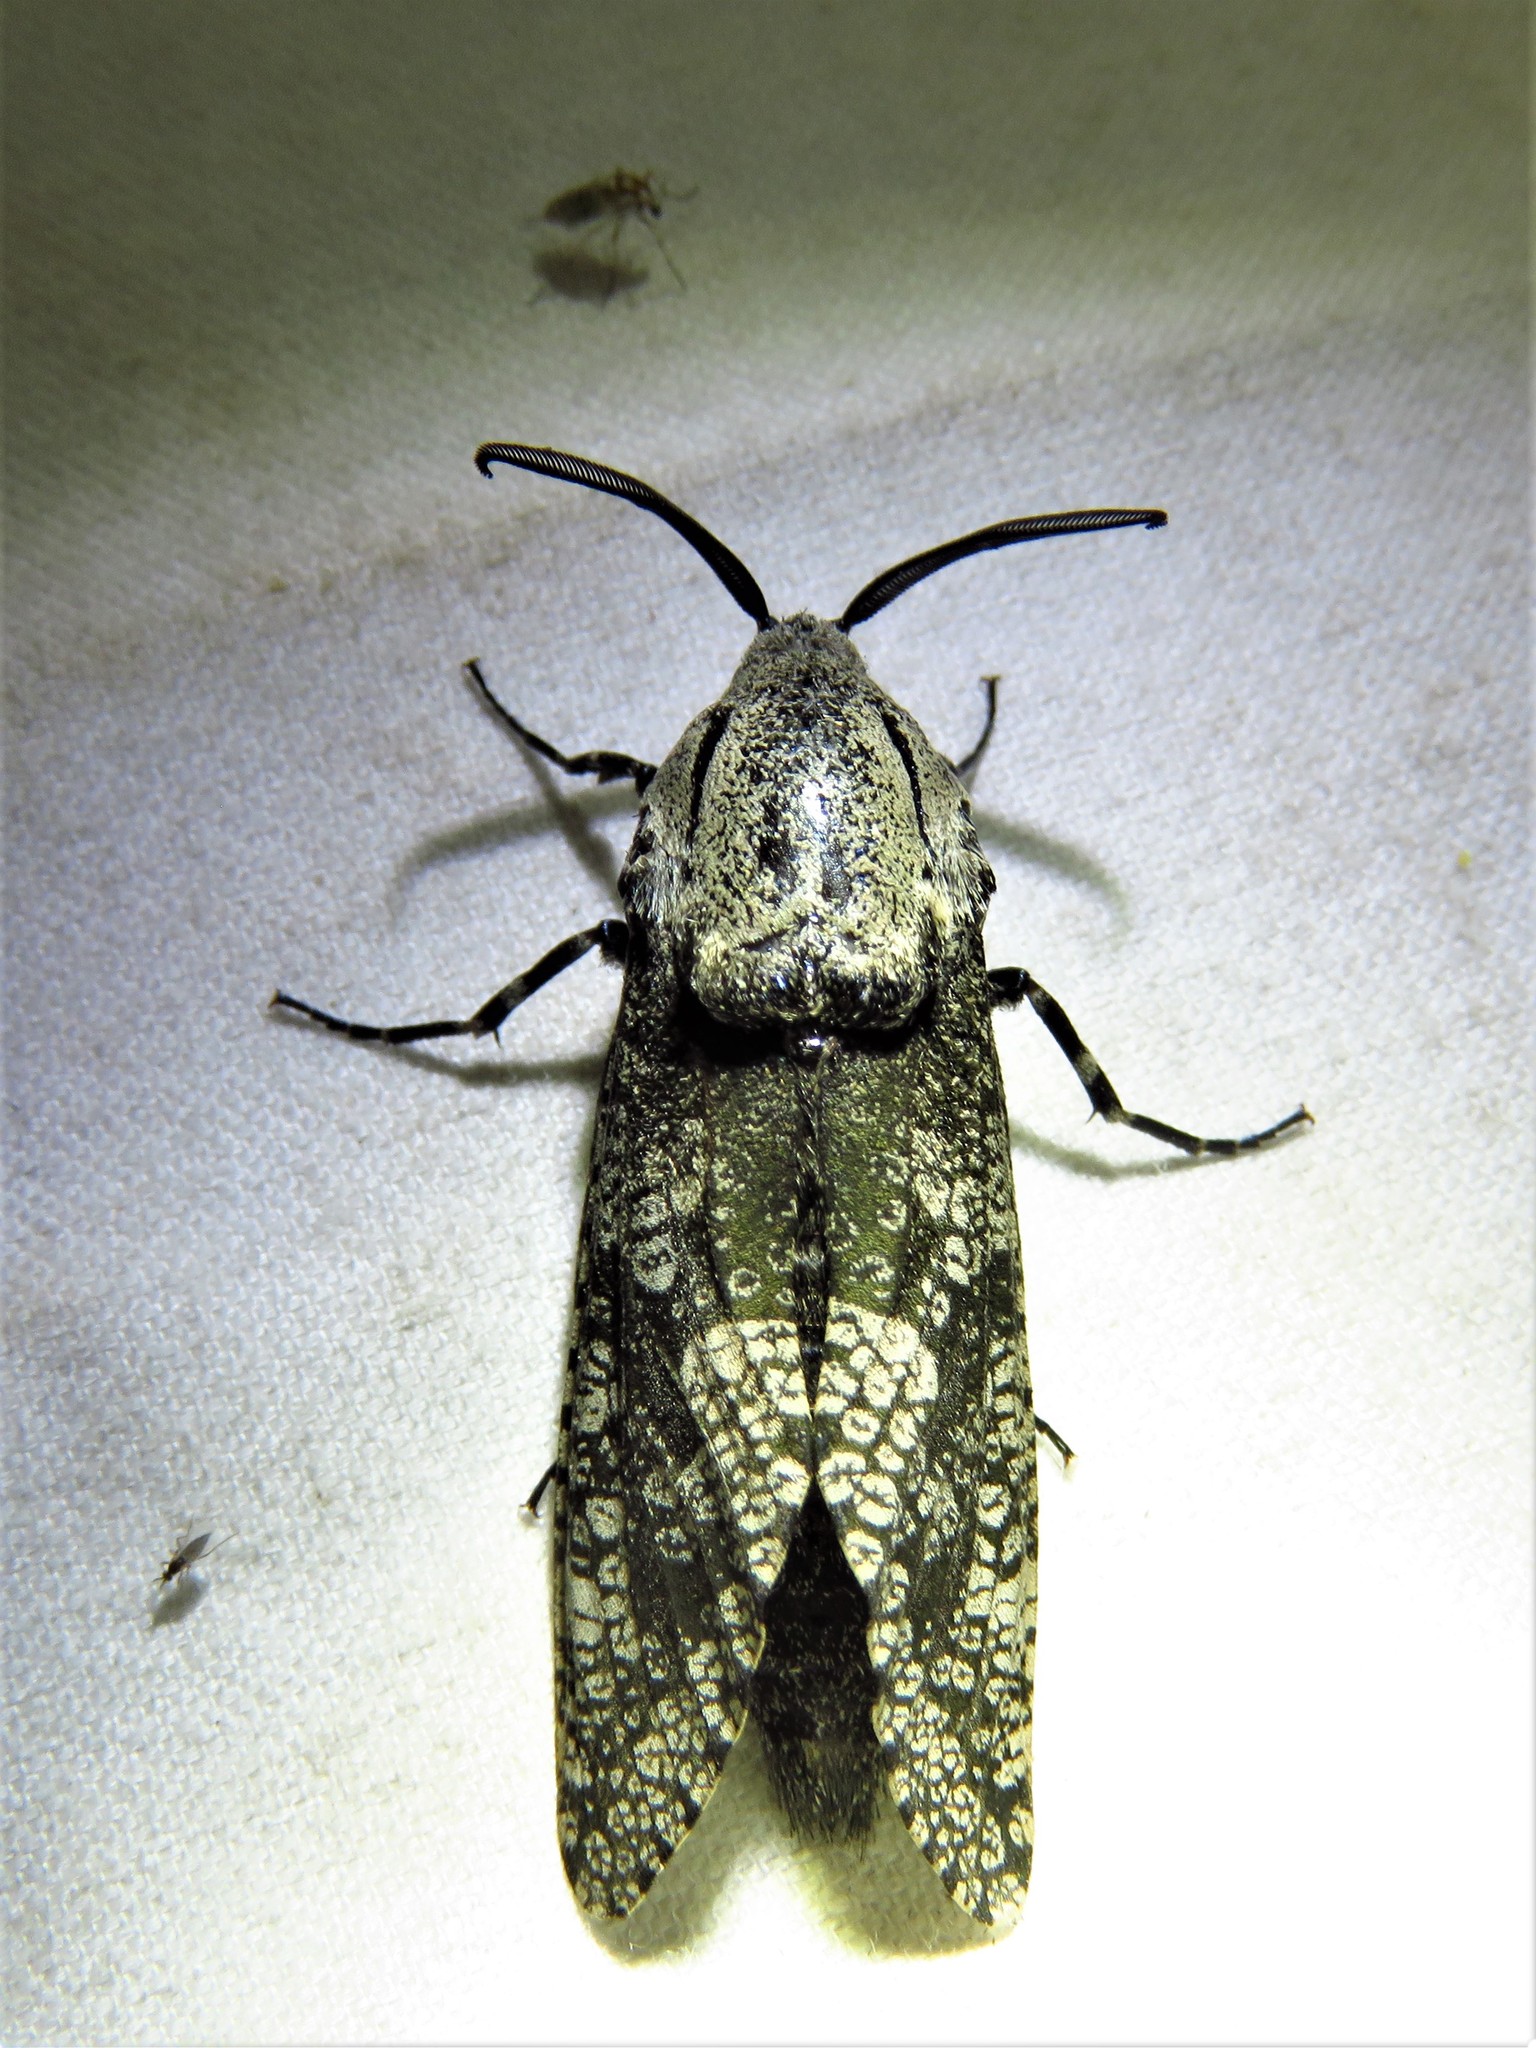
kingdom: Animalia
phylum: Arthropoda
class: Insecta
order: Lepidoptera
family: Cossidae
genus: Prionoxystus
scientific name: Prionoxystus robiniae
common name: Carpenterworm
